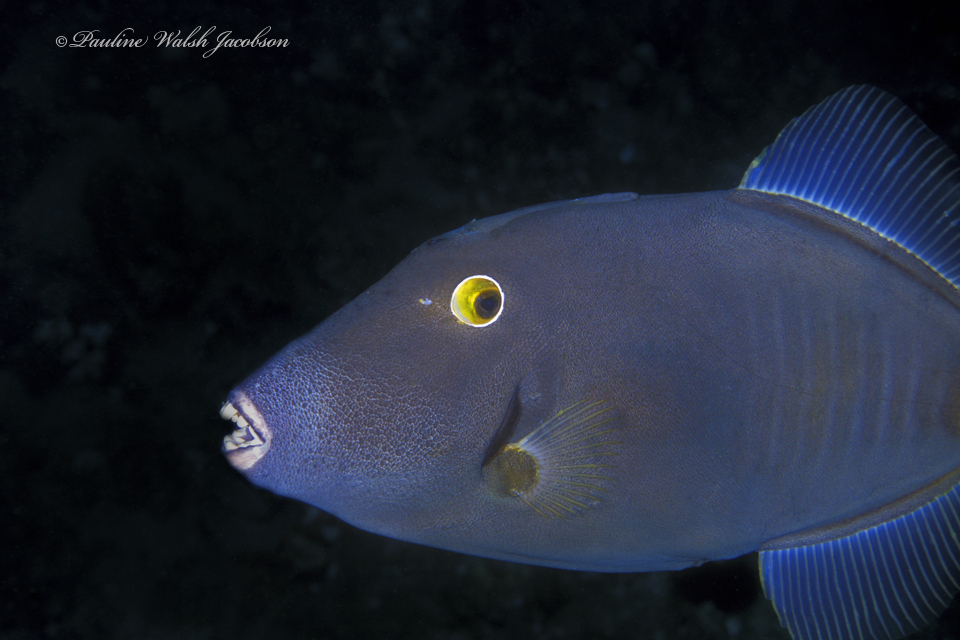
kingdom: Animalia
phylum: Chordata
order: Tetraodontiformes
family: Monacanthidae
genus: Cantherhines
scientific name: Cantherhines dumerilii
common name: Barred filefish
